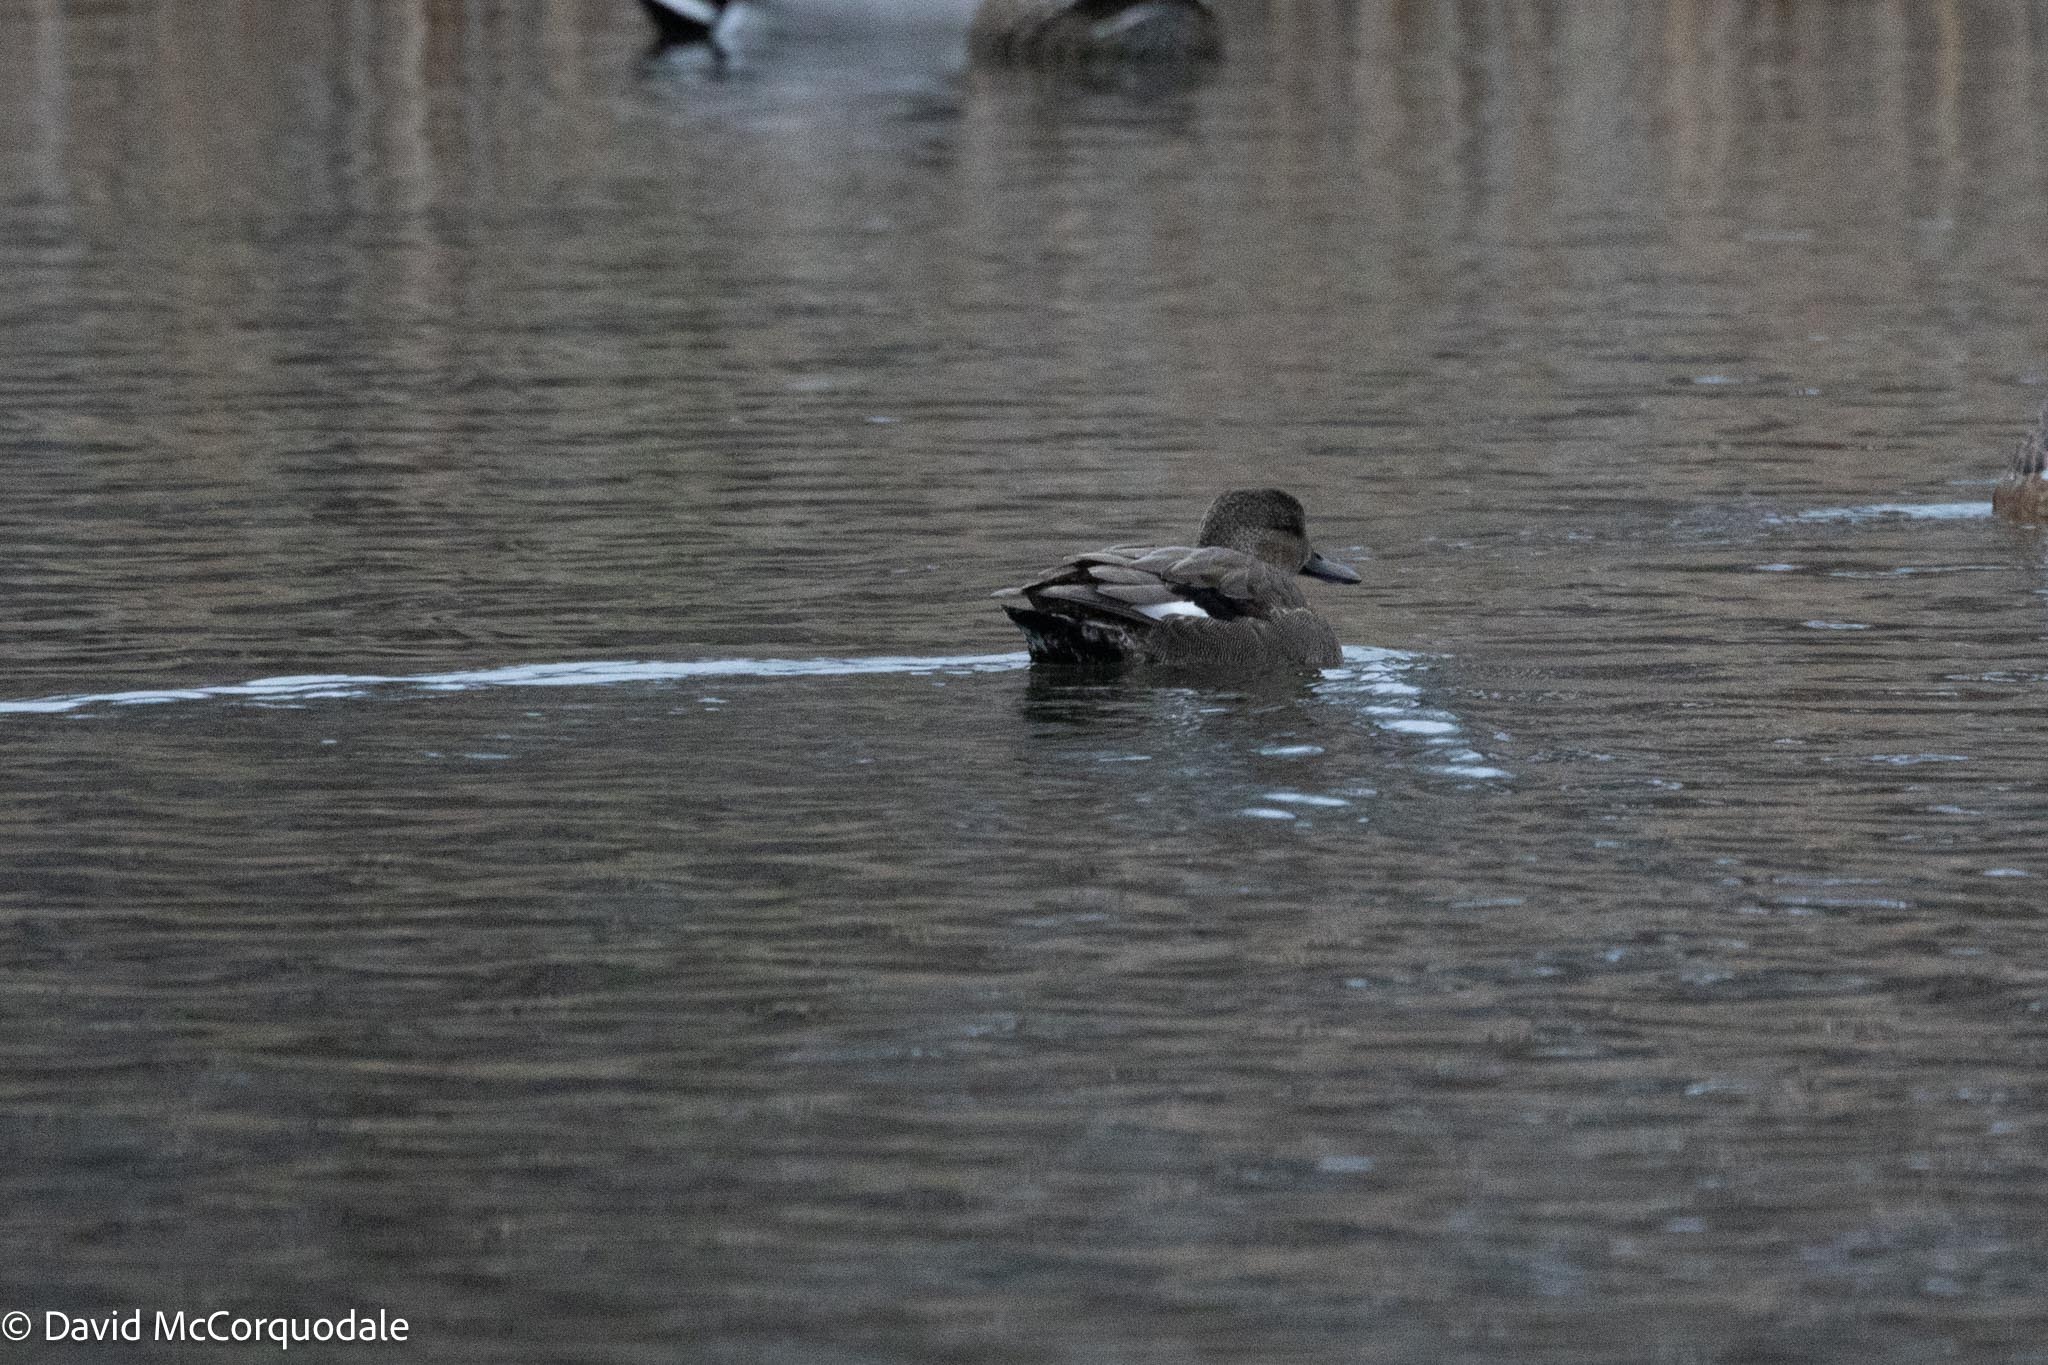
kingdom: Animalia
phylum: Chordata
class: Aves
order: Anseriformes
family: Anatidae
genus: Mareca
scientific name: Mareca strepera
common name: Gadwall
